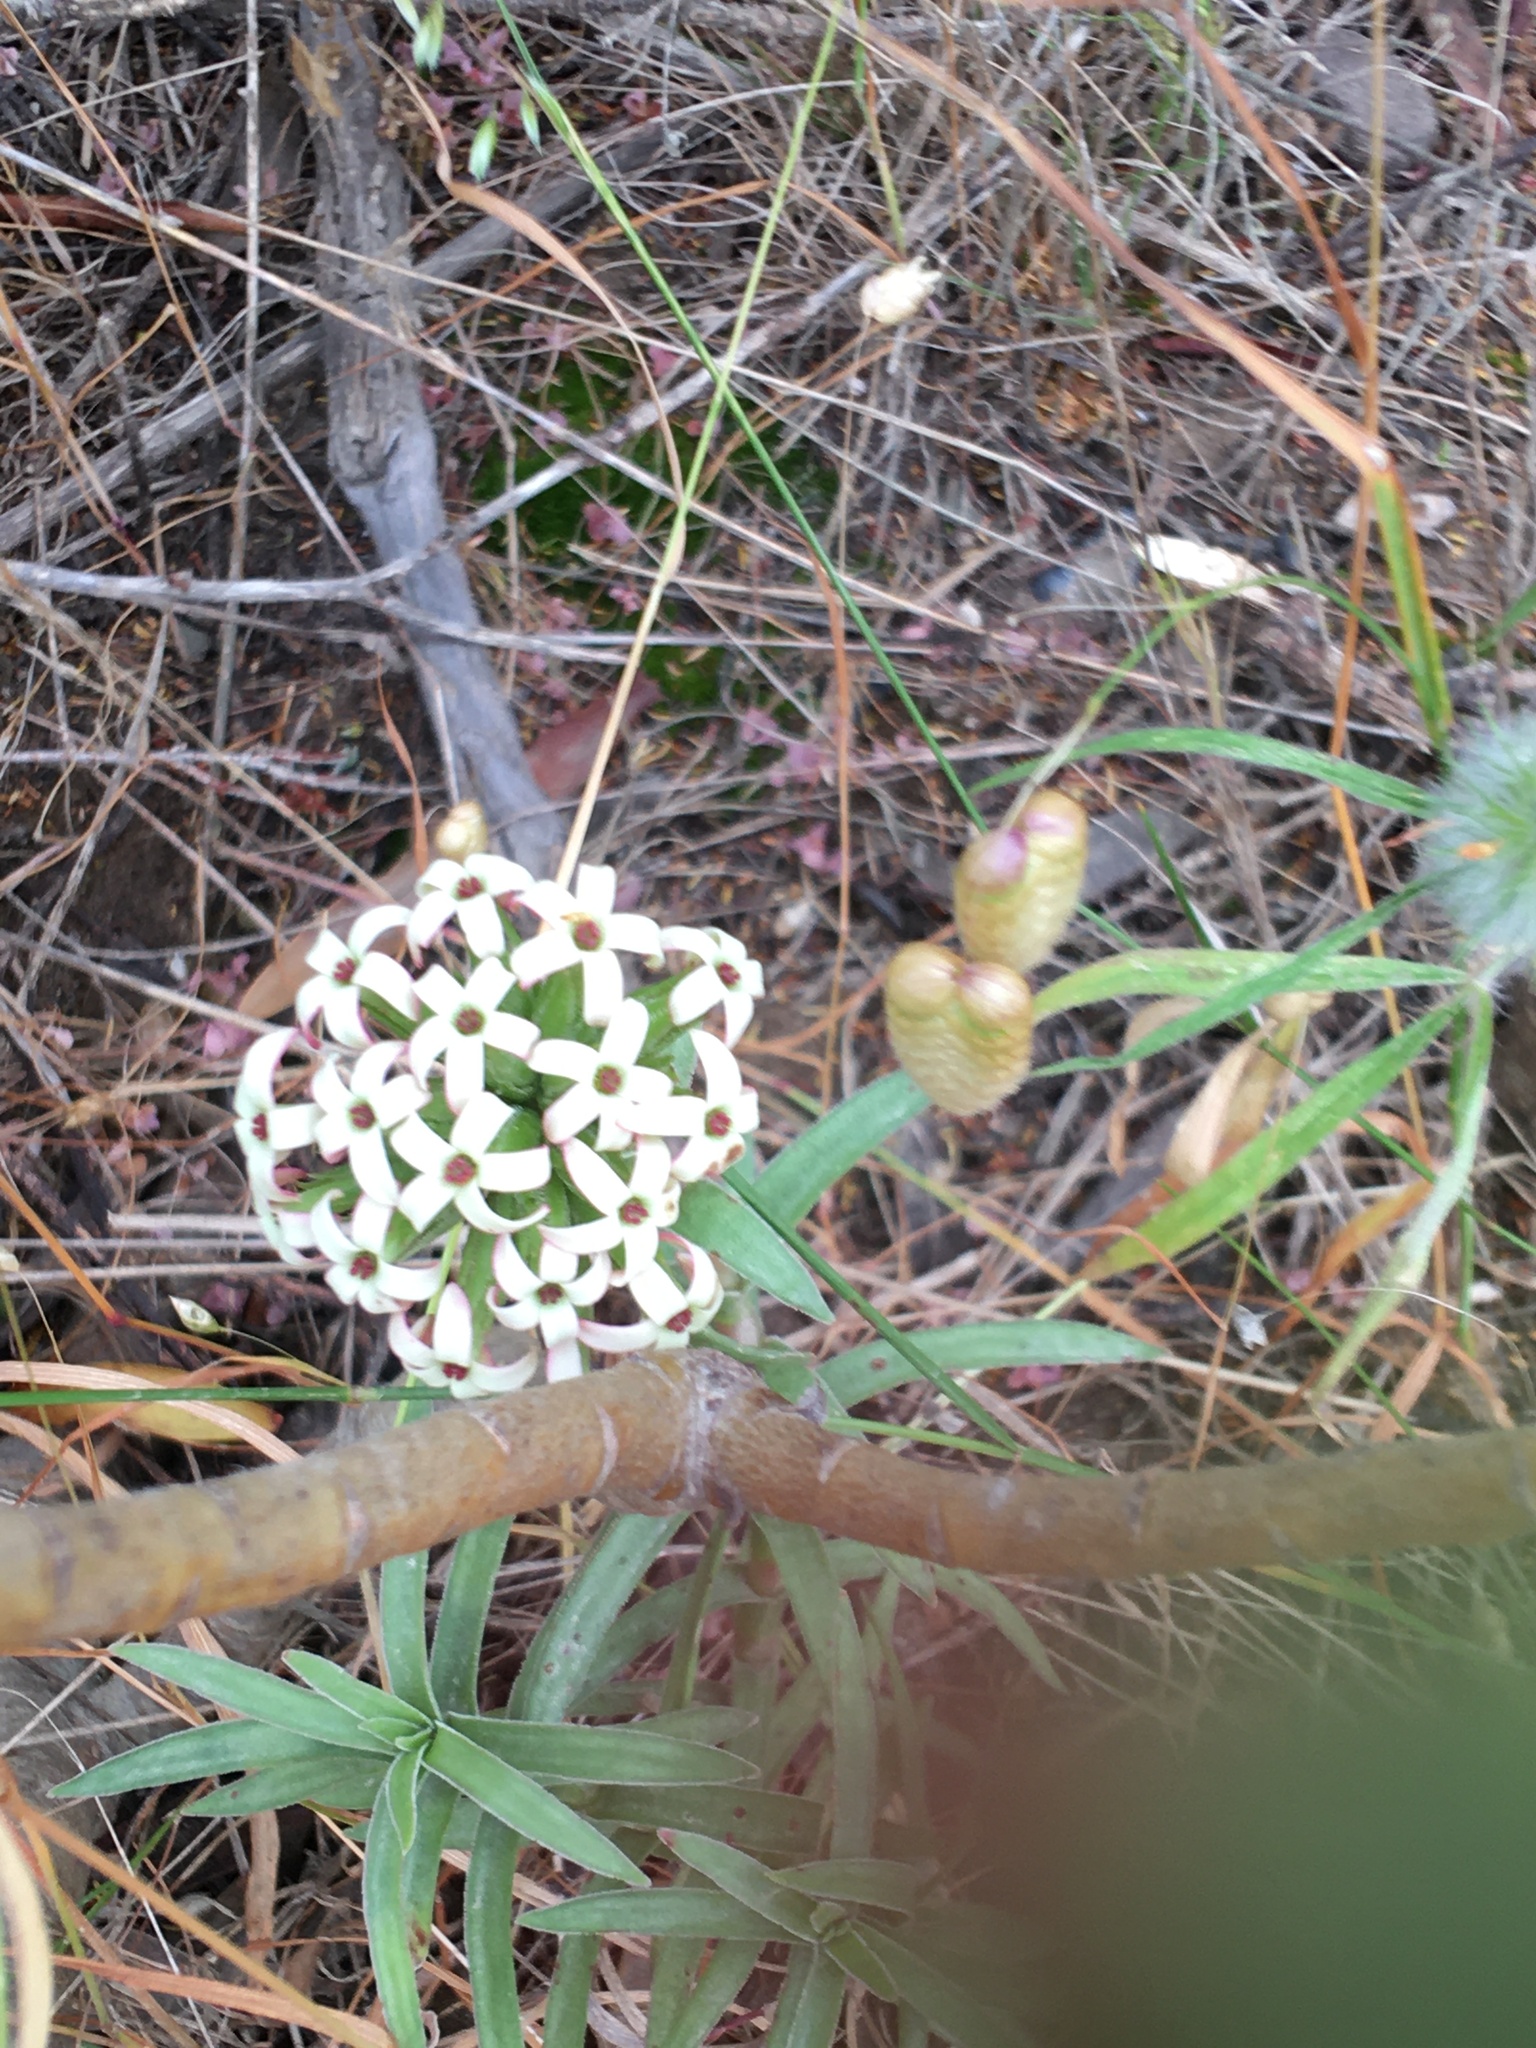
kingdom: Plantae
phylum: Tracheophyta
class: Magnoliopsida
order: Saxifragales
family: Crassulaceae
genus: Crassula
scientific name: Crassula fascicularis
